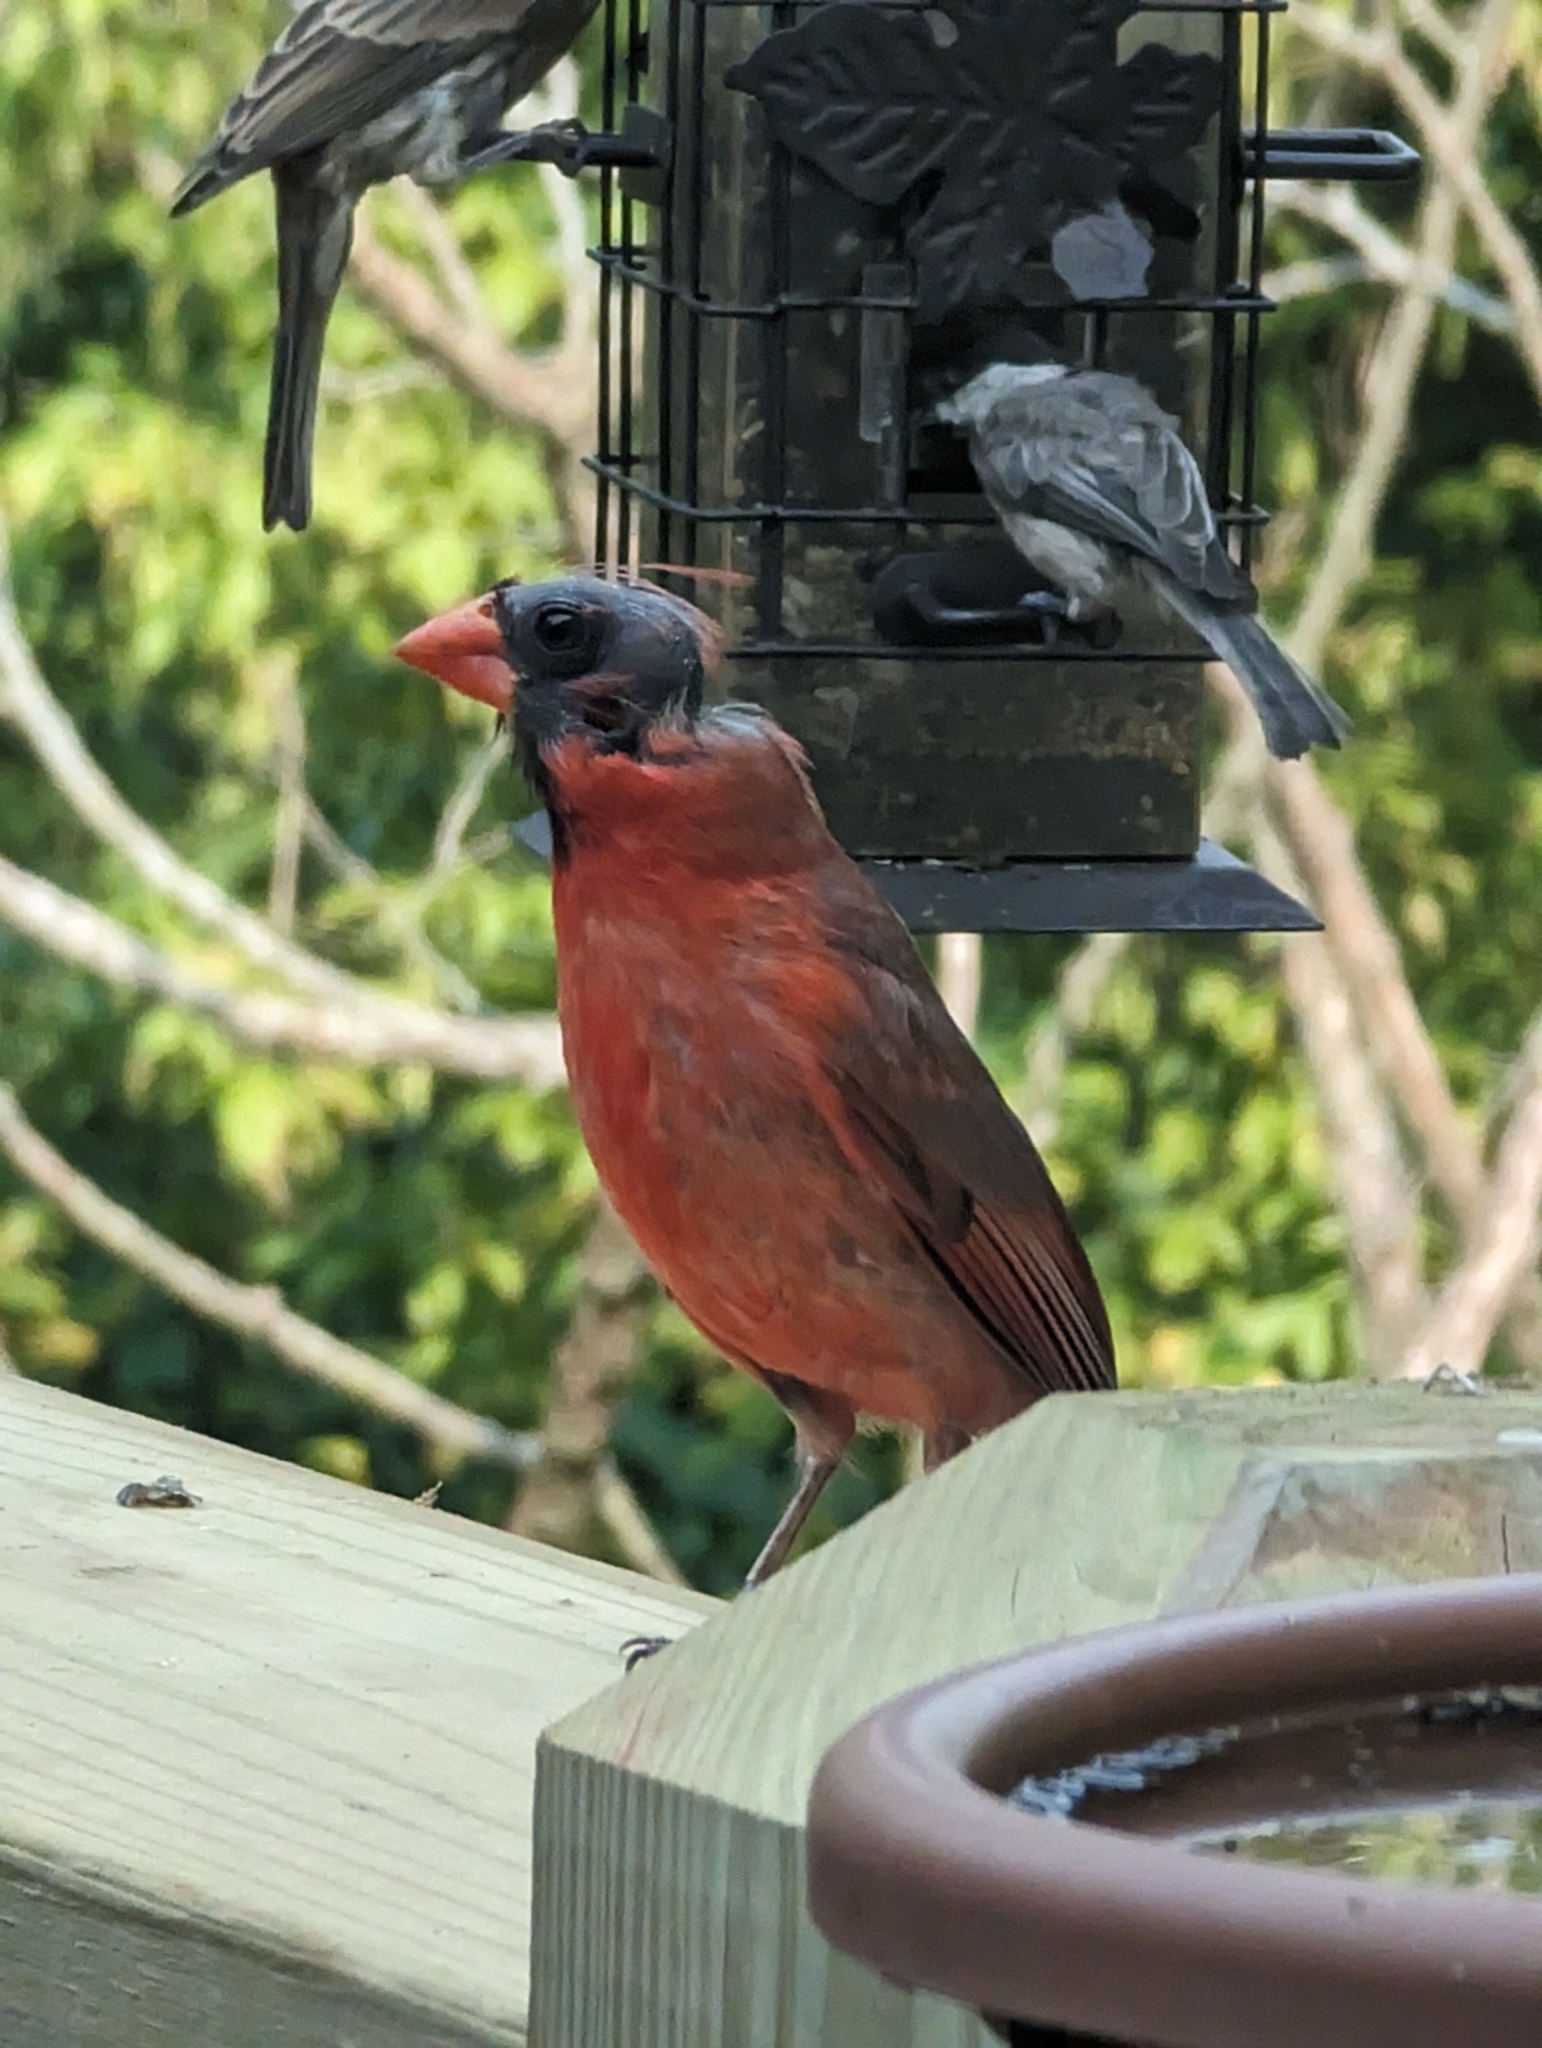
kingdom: Animalia
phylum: Chordata
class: Aves
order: Passeriformes
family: Cardinalidae
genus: Cardinalis
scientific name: Cardinalis cardinalis
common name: Northern cardinal
